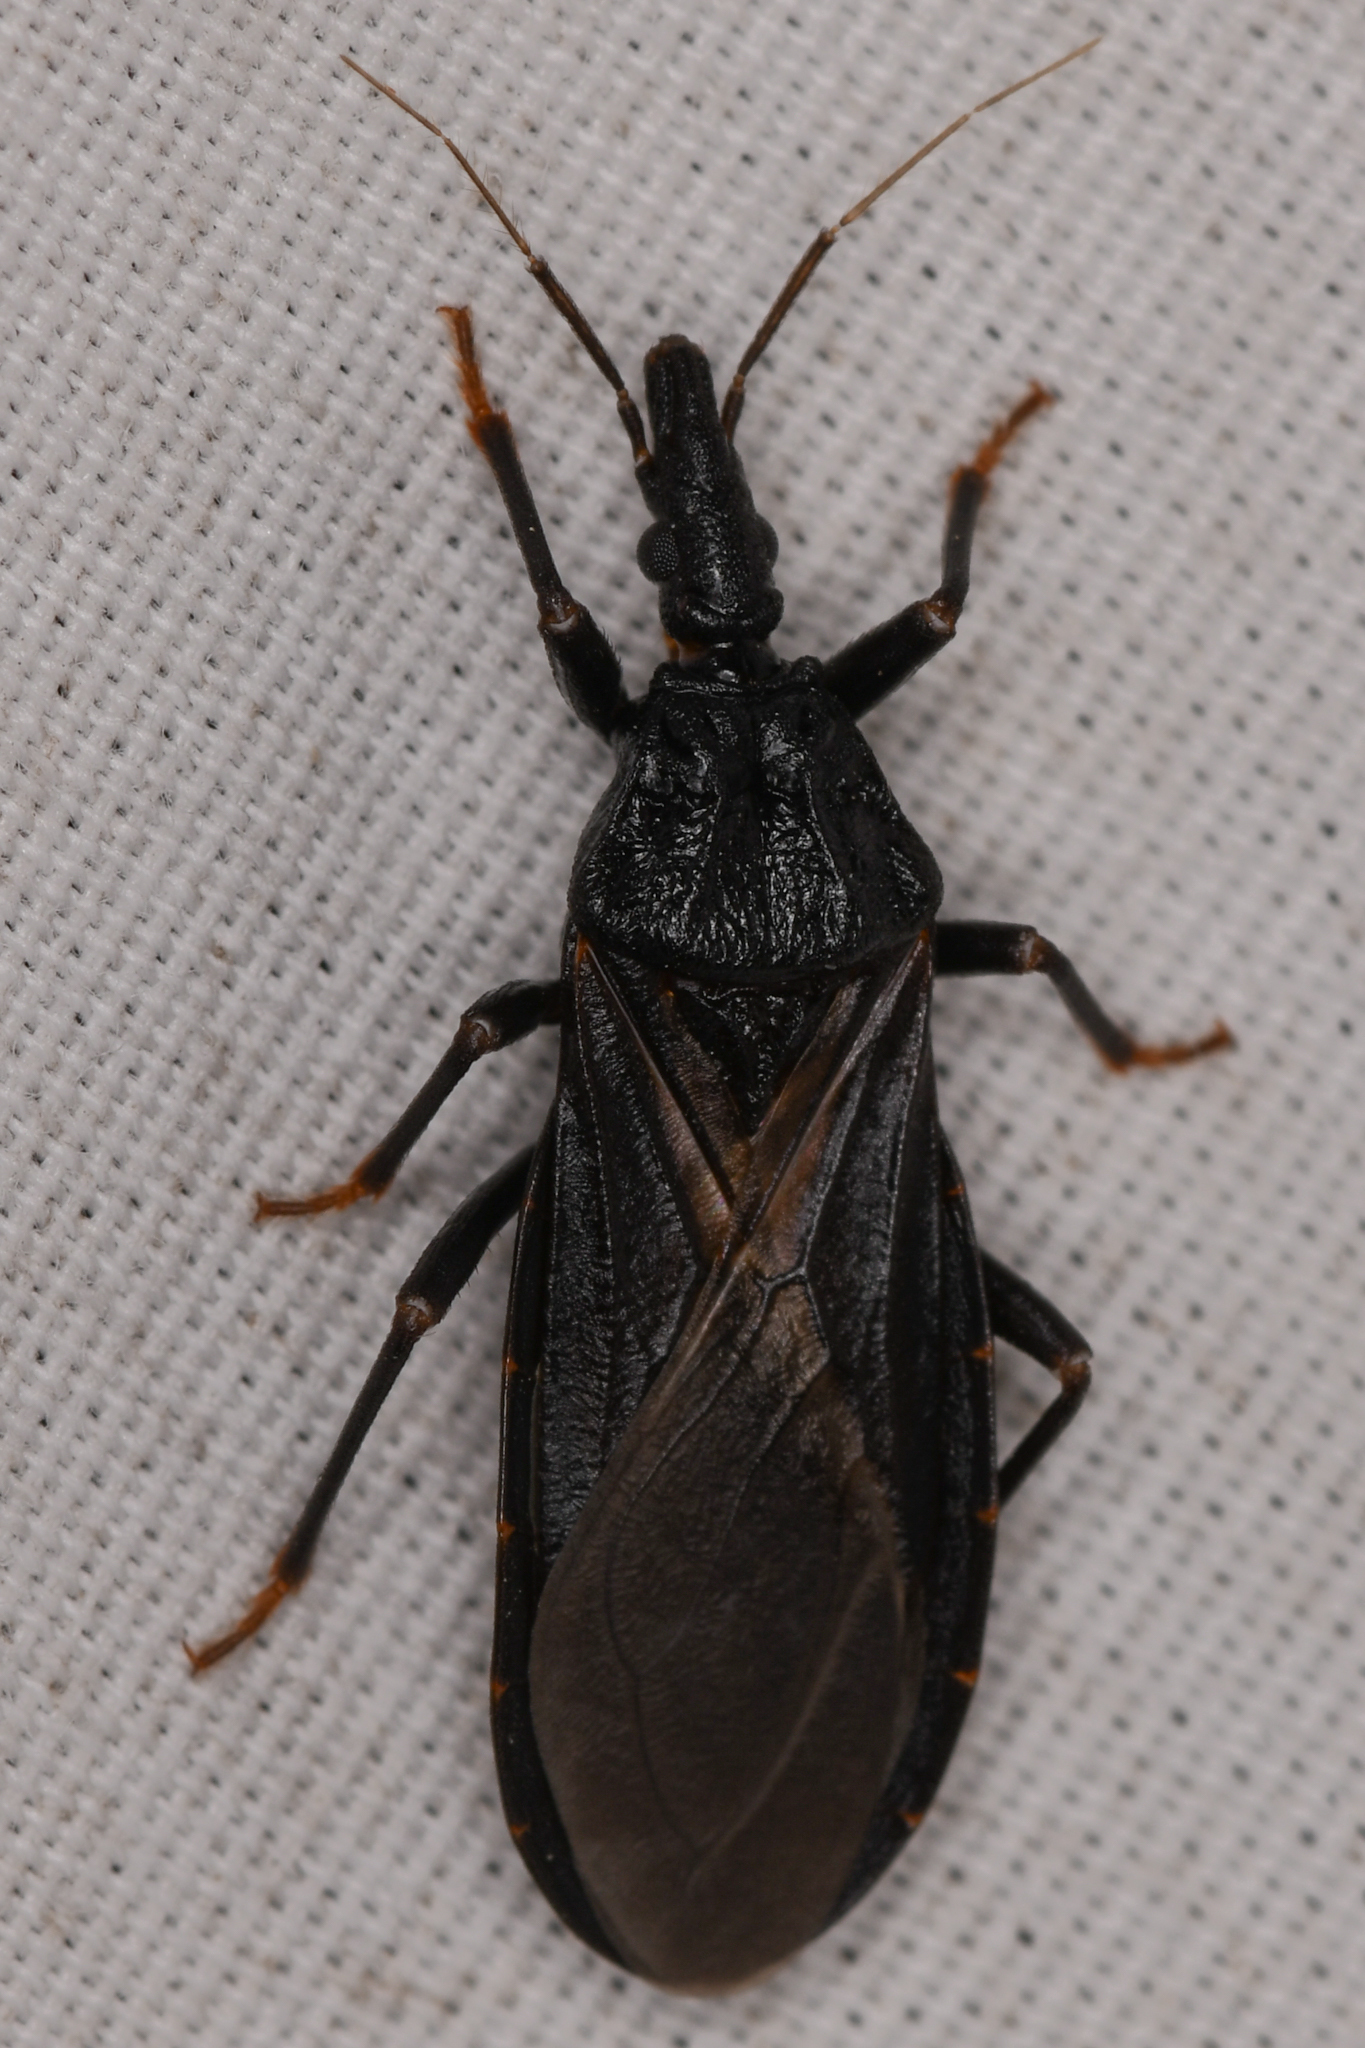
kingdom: Animalia
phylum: Arthropoda
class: Insecta
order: Hemiptera
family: Reduviidae
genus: Triatoma
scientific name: Triatoma protracta
